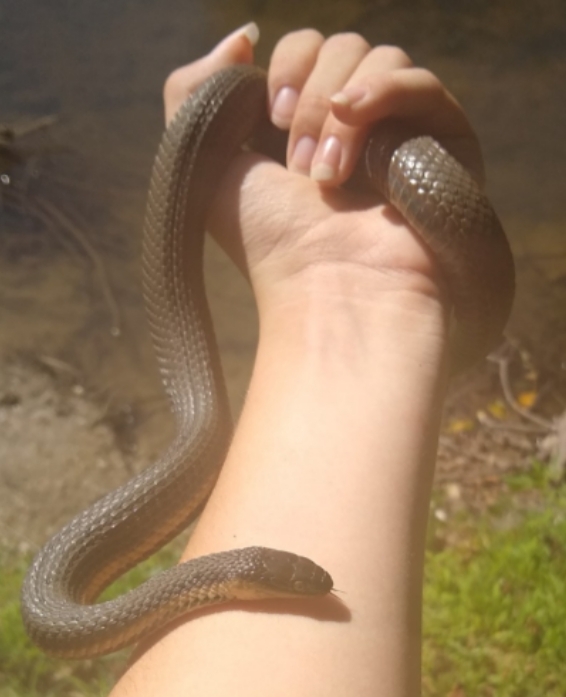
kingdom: Animalia
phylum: Chordata
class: Squamata
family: Colubridae
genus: Regina
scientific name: Regina septemvittata
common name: Queen snake
